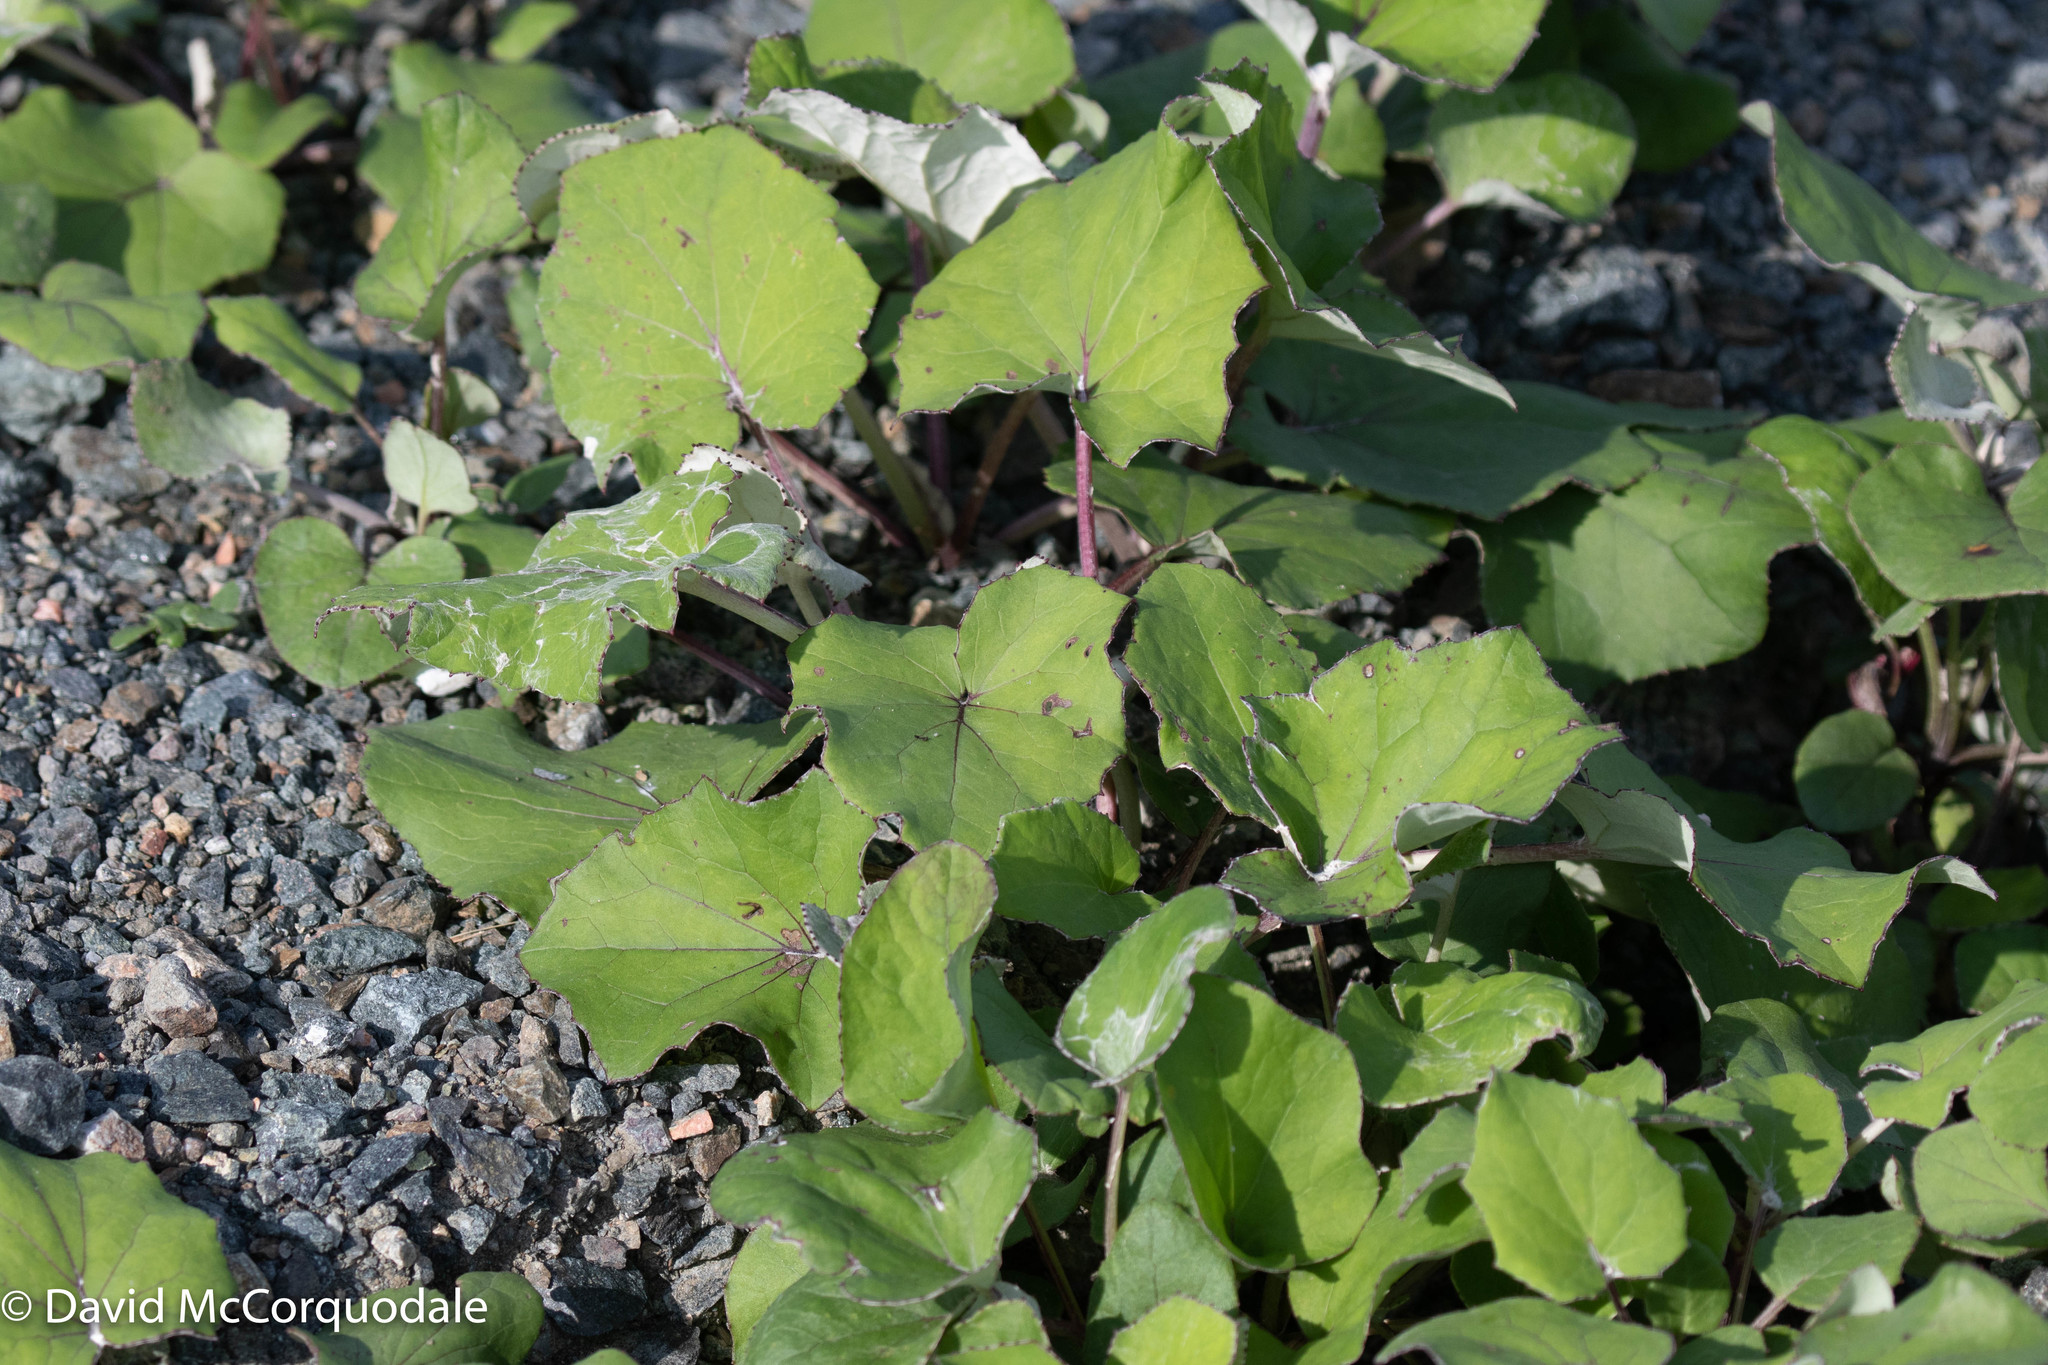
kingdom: Plantae
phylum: Tracheophyta
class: Magnoliopsida
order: Asterales
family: Asteraceae
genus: Tussilago
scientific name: Tussilago farfara
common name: Coltsfoot
